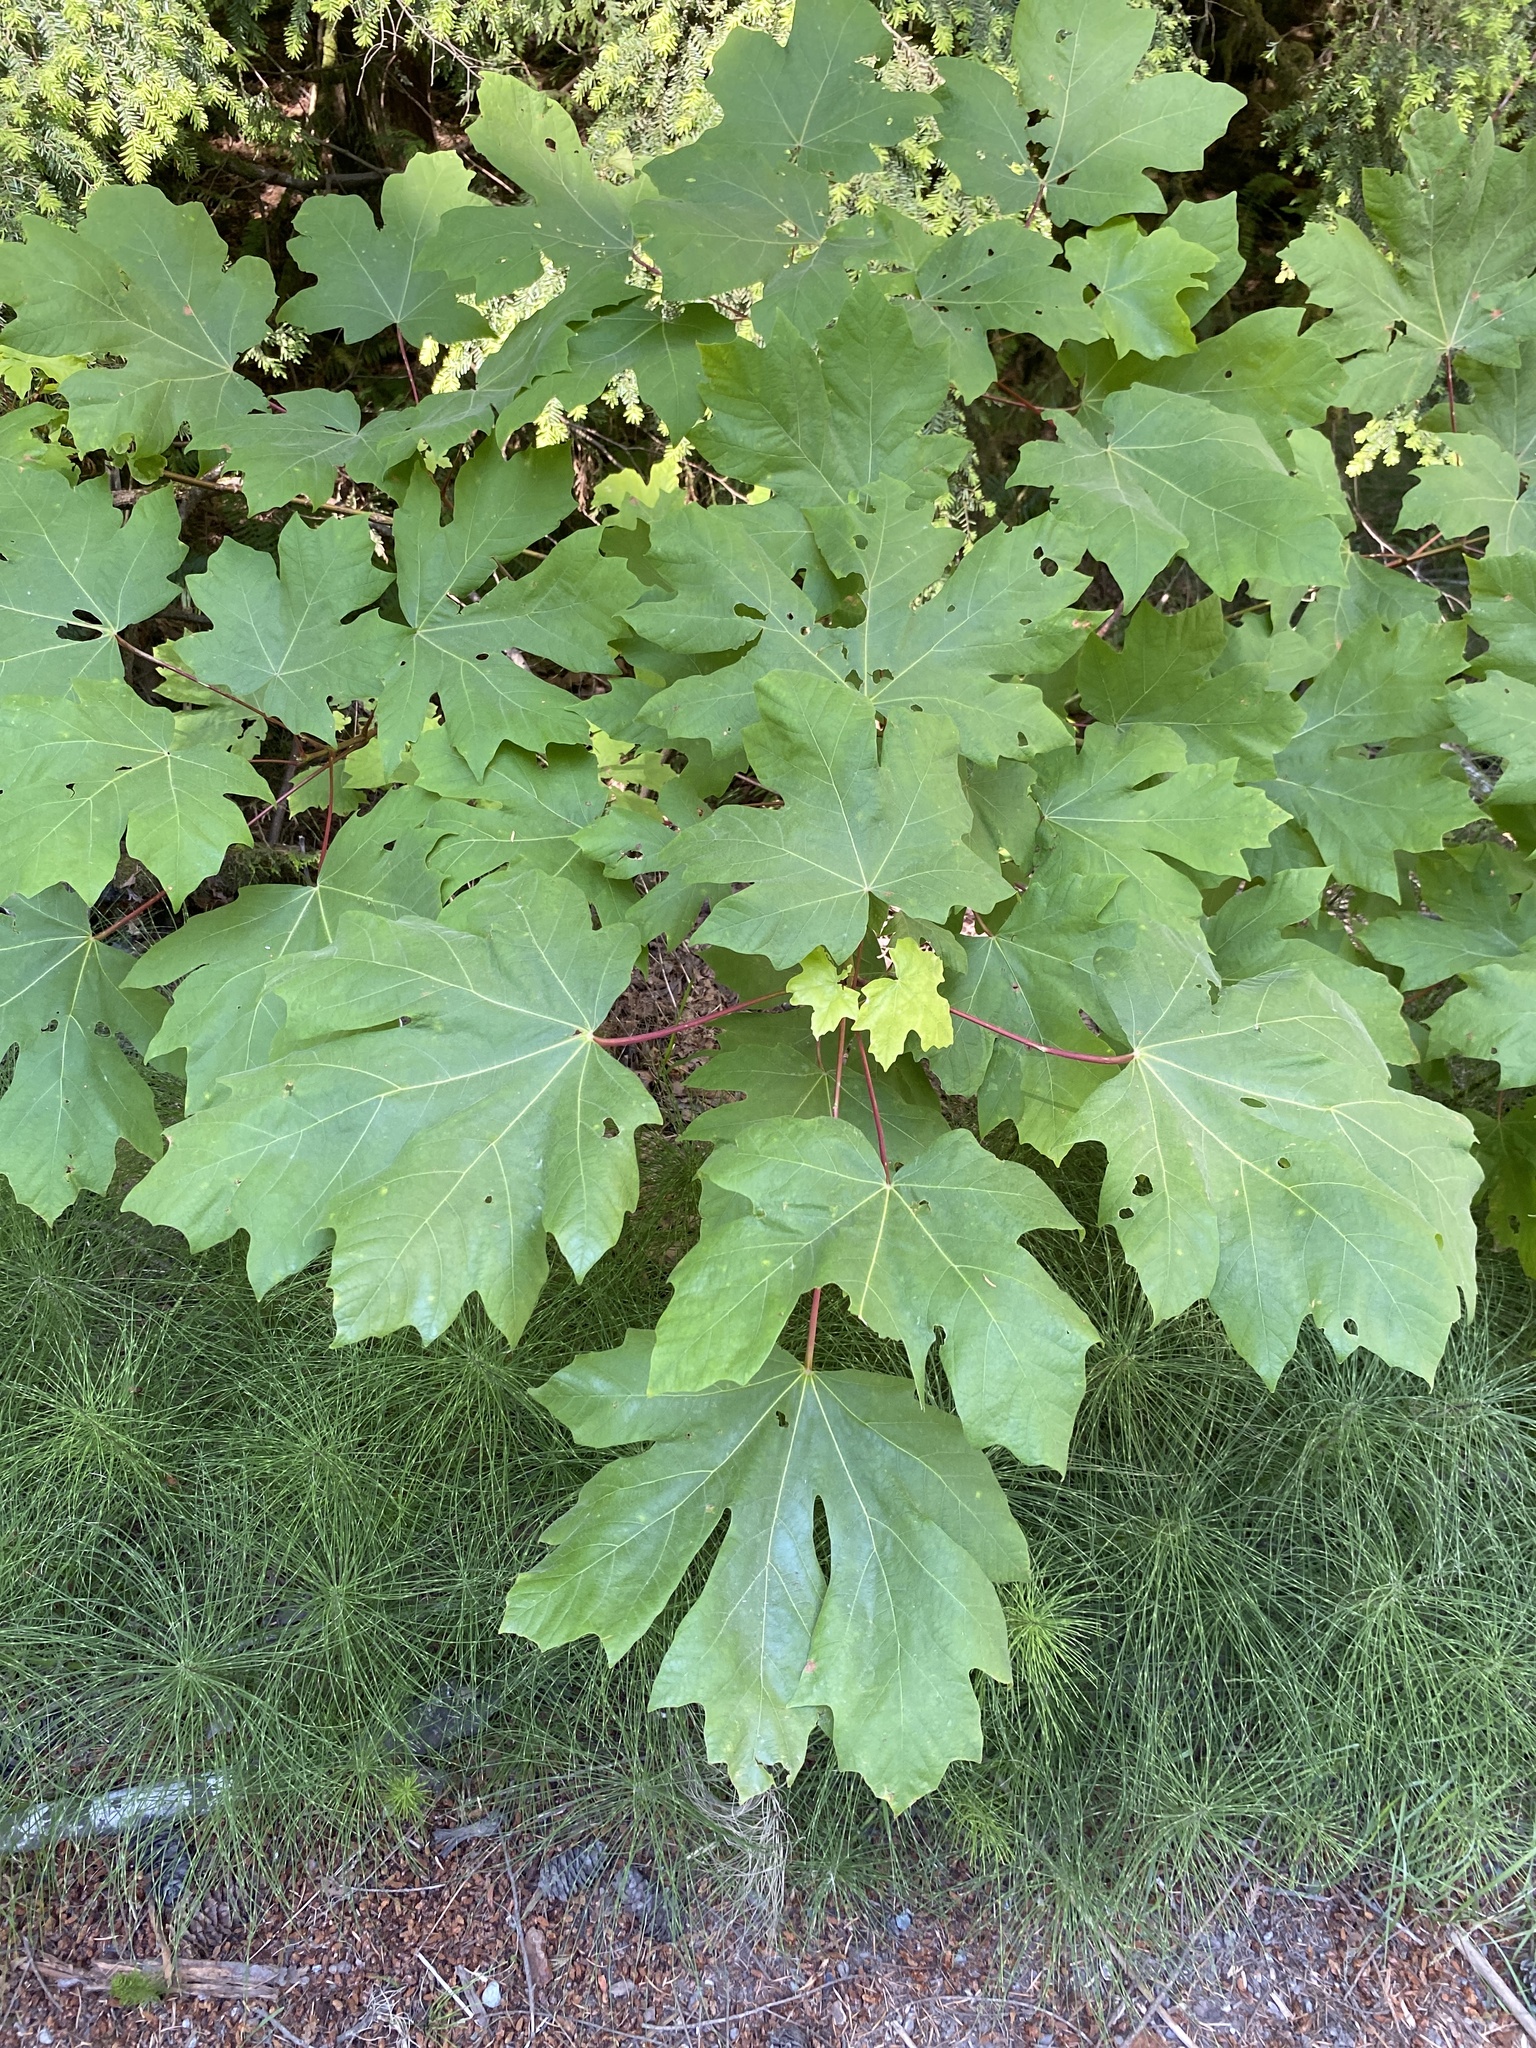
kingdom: Plantae
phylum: Tracheophyta
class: Magnoliopsida
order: Sapindales
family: Sapindaceae
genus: Acer
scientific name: Acer macrophyllum
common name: Oregon maple
